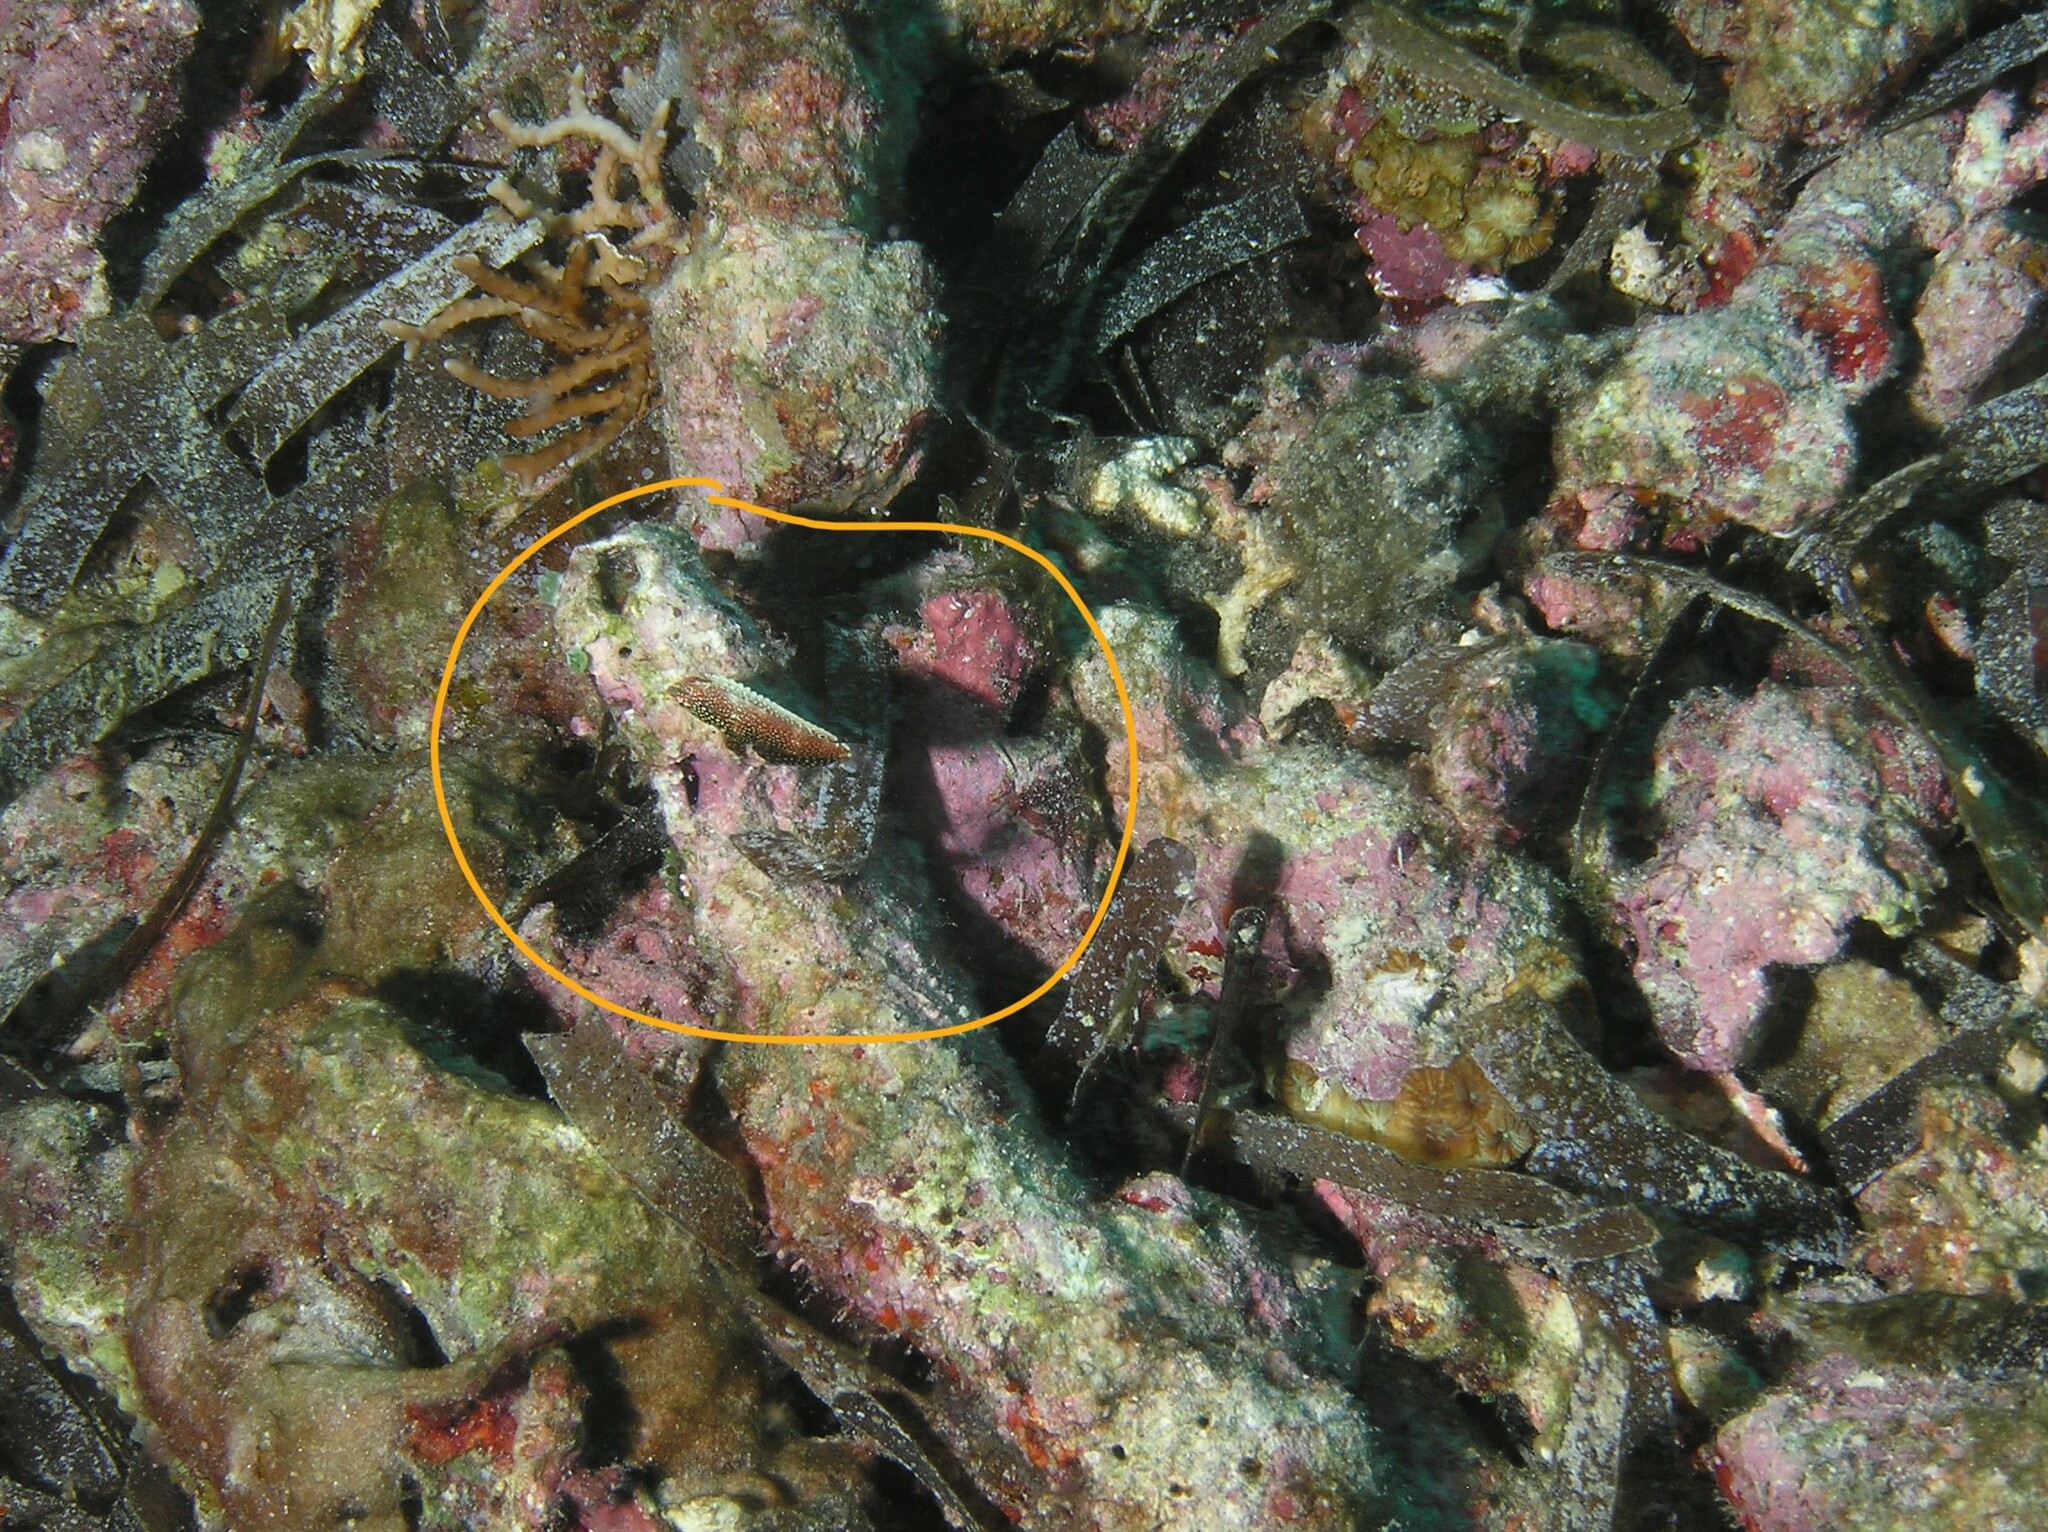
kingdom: Animalia
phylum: Chordata
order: Perciformes
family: Labridae
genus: Macropharyngodon
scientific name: Macropharyngodon negrosensis
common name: Black leopard wrasse
